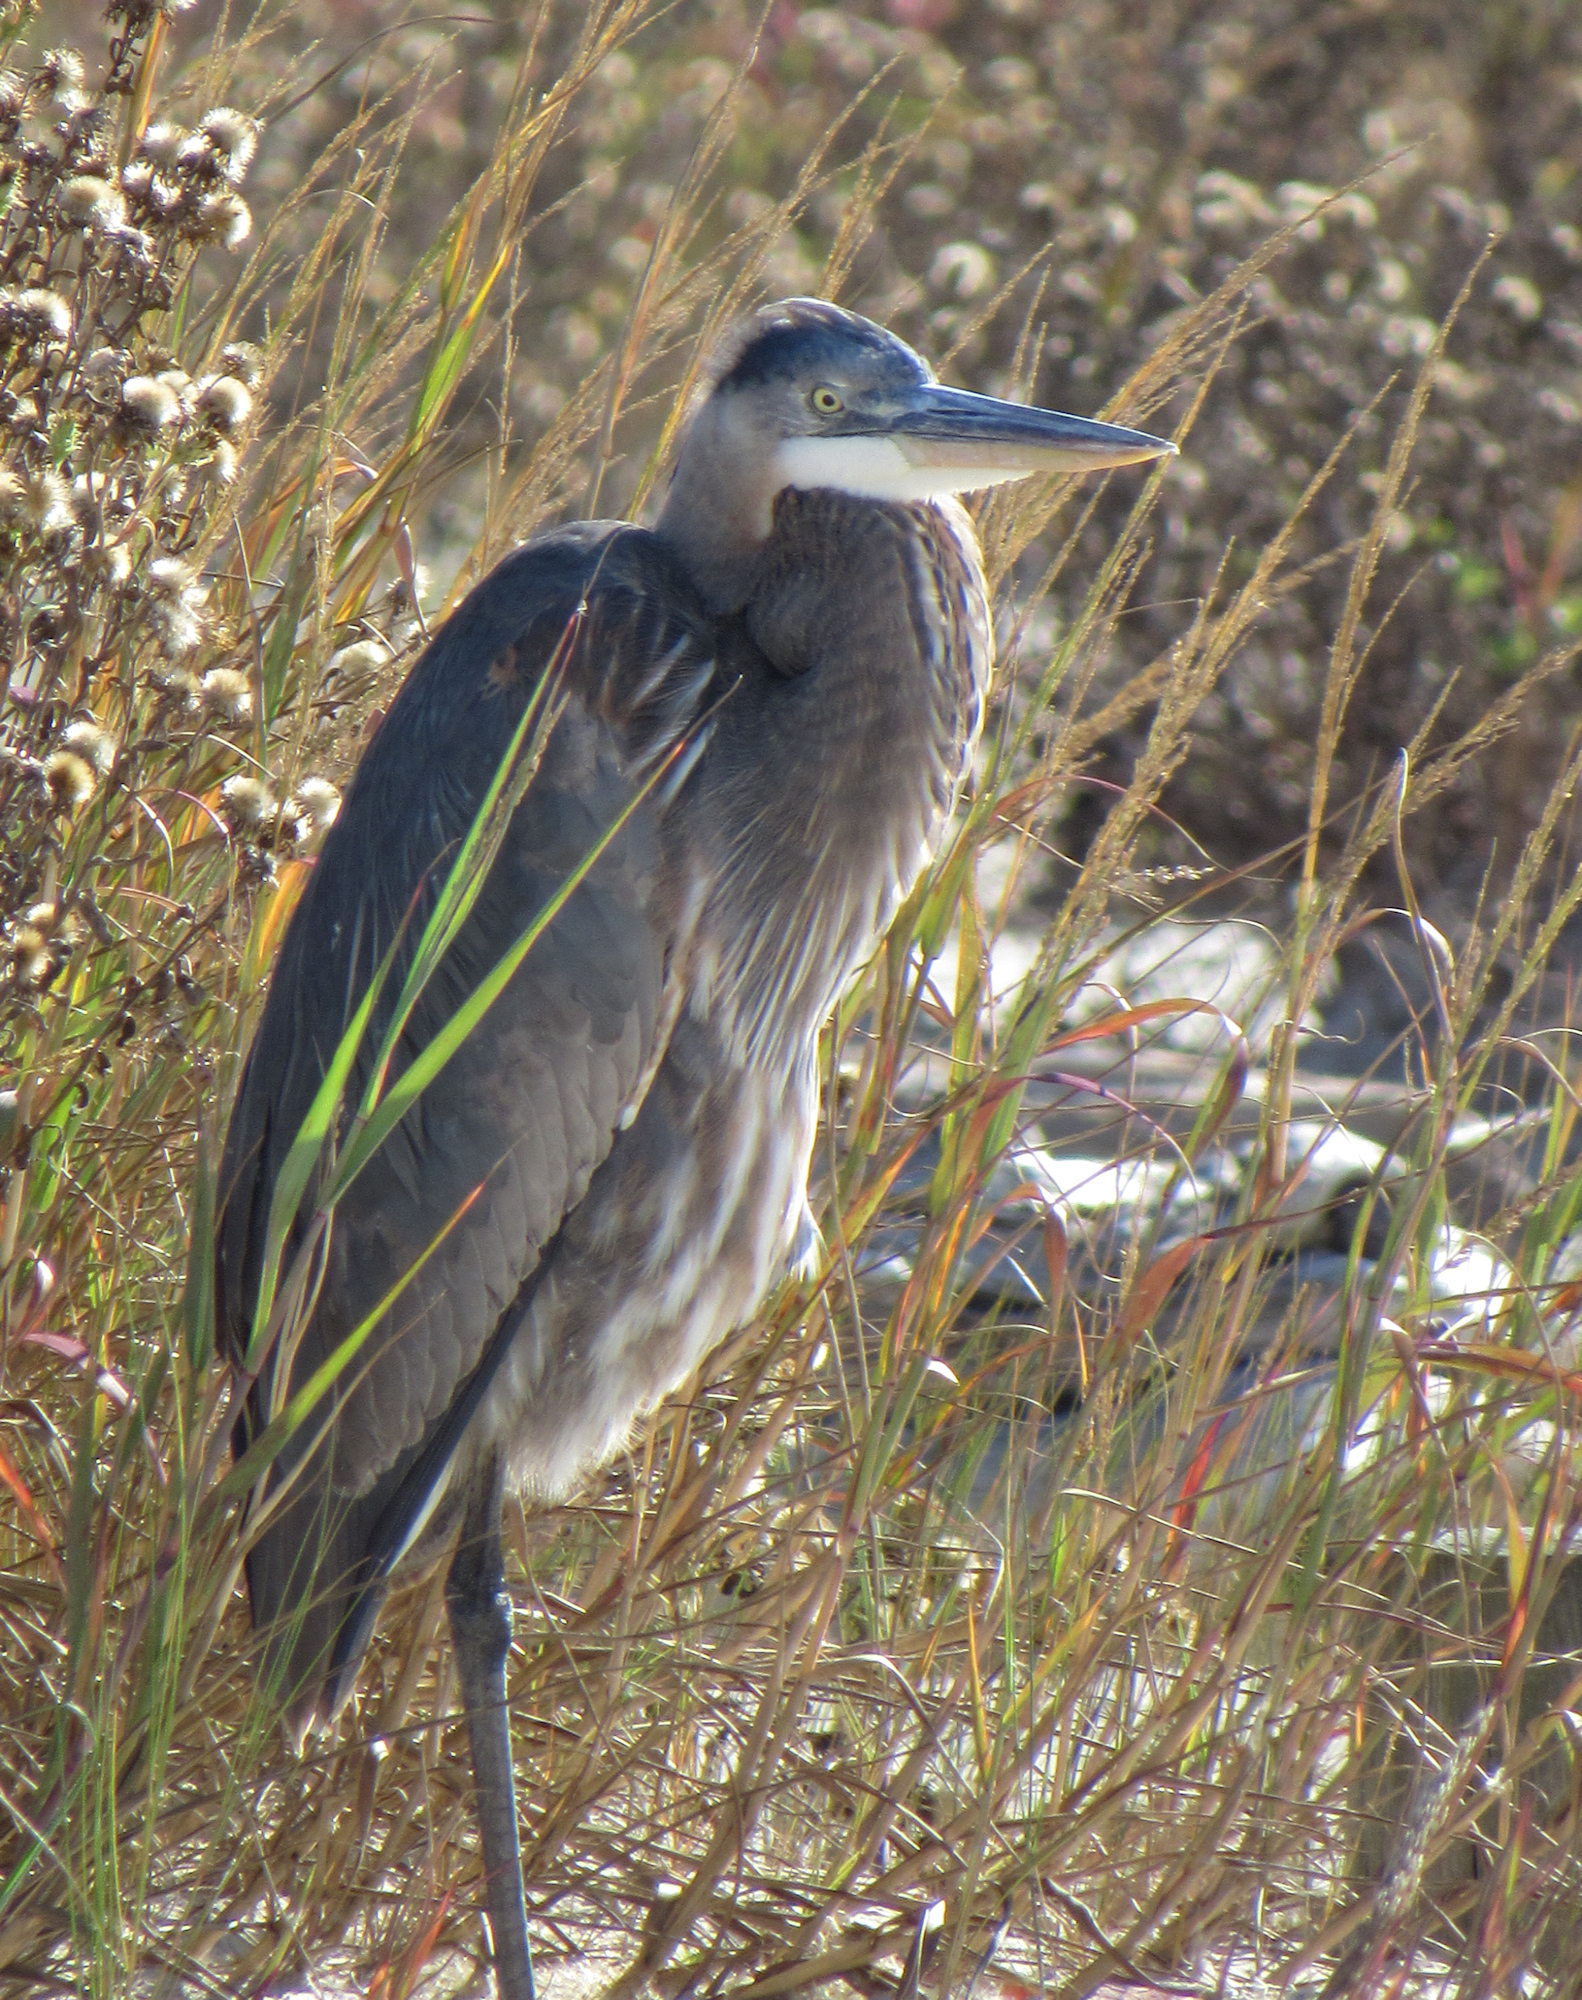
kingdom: Animalia
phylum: Chordata
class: Aves
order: Pelecaniformes
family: Ardeidae
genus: Ardea
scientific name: Ardea herodias
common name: Great blue heron
